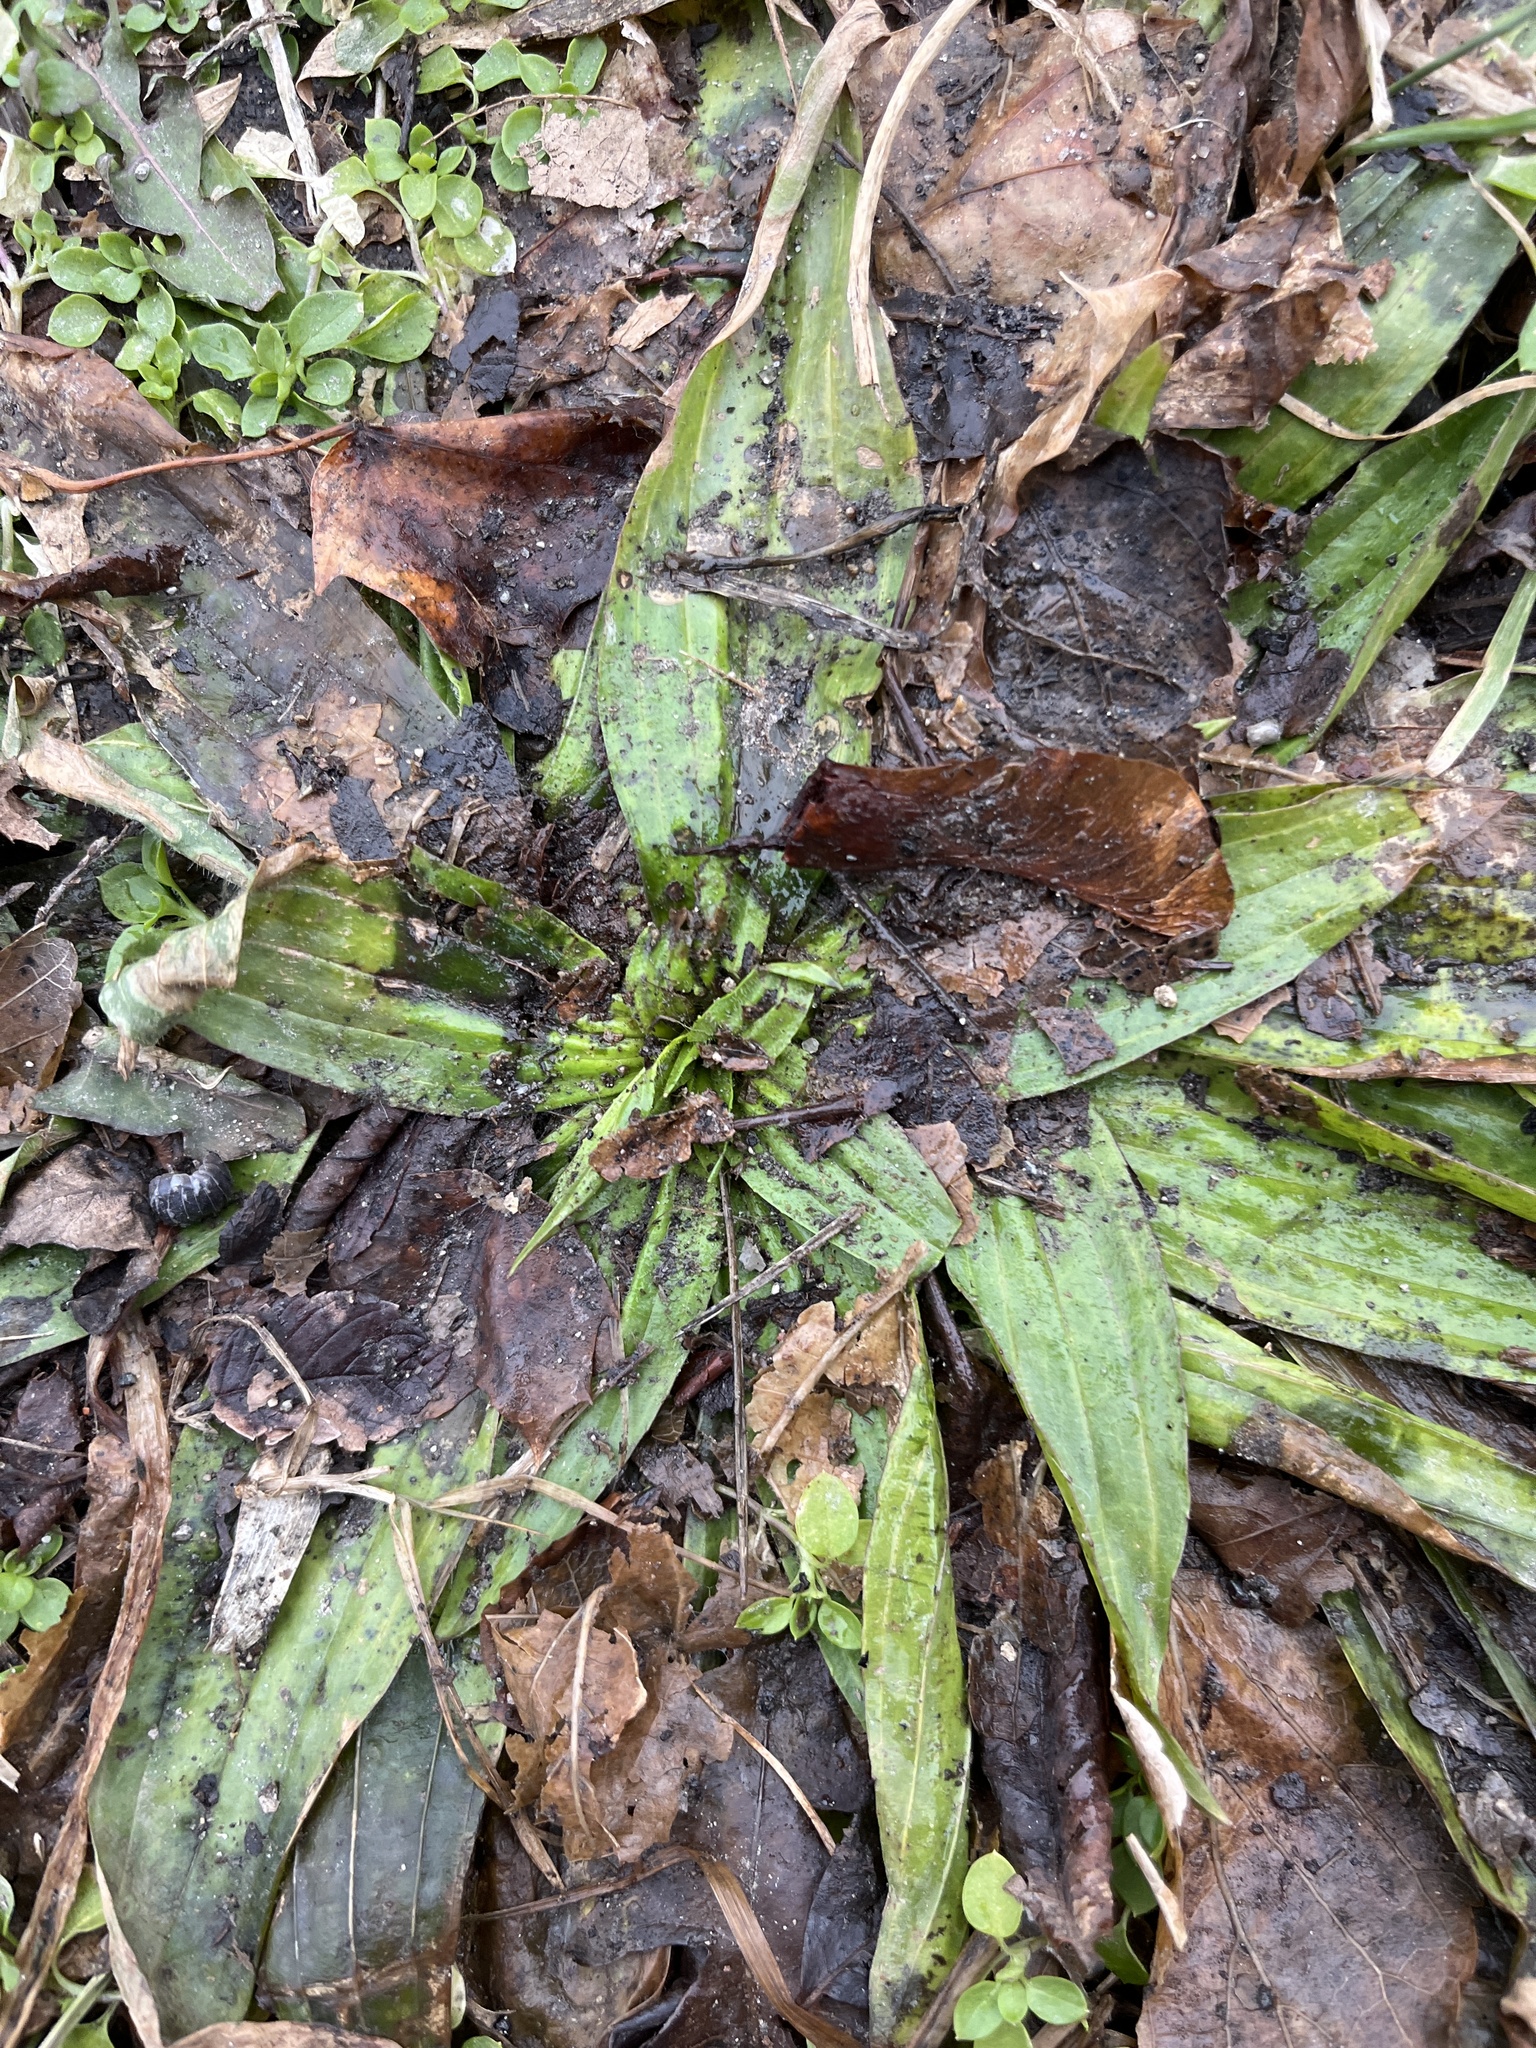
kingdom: Plantae
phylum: Tracheophyta
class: Magnoliopsida
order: Lamiales
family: Plantaginaceae
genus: Plantago
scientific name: Plantago lanceolata
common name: Ribwort plantain
